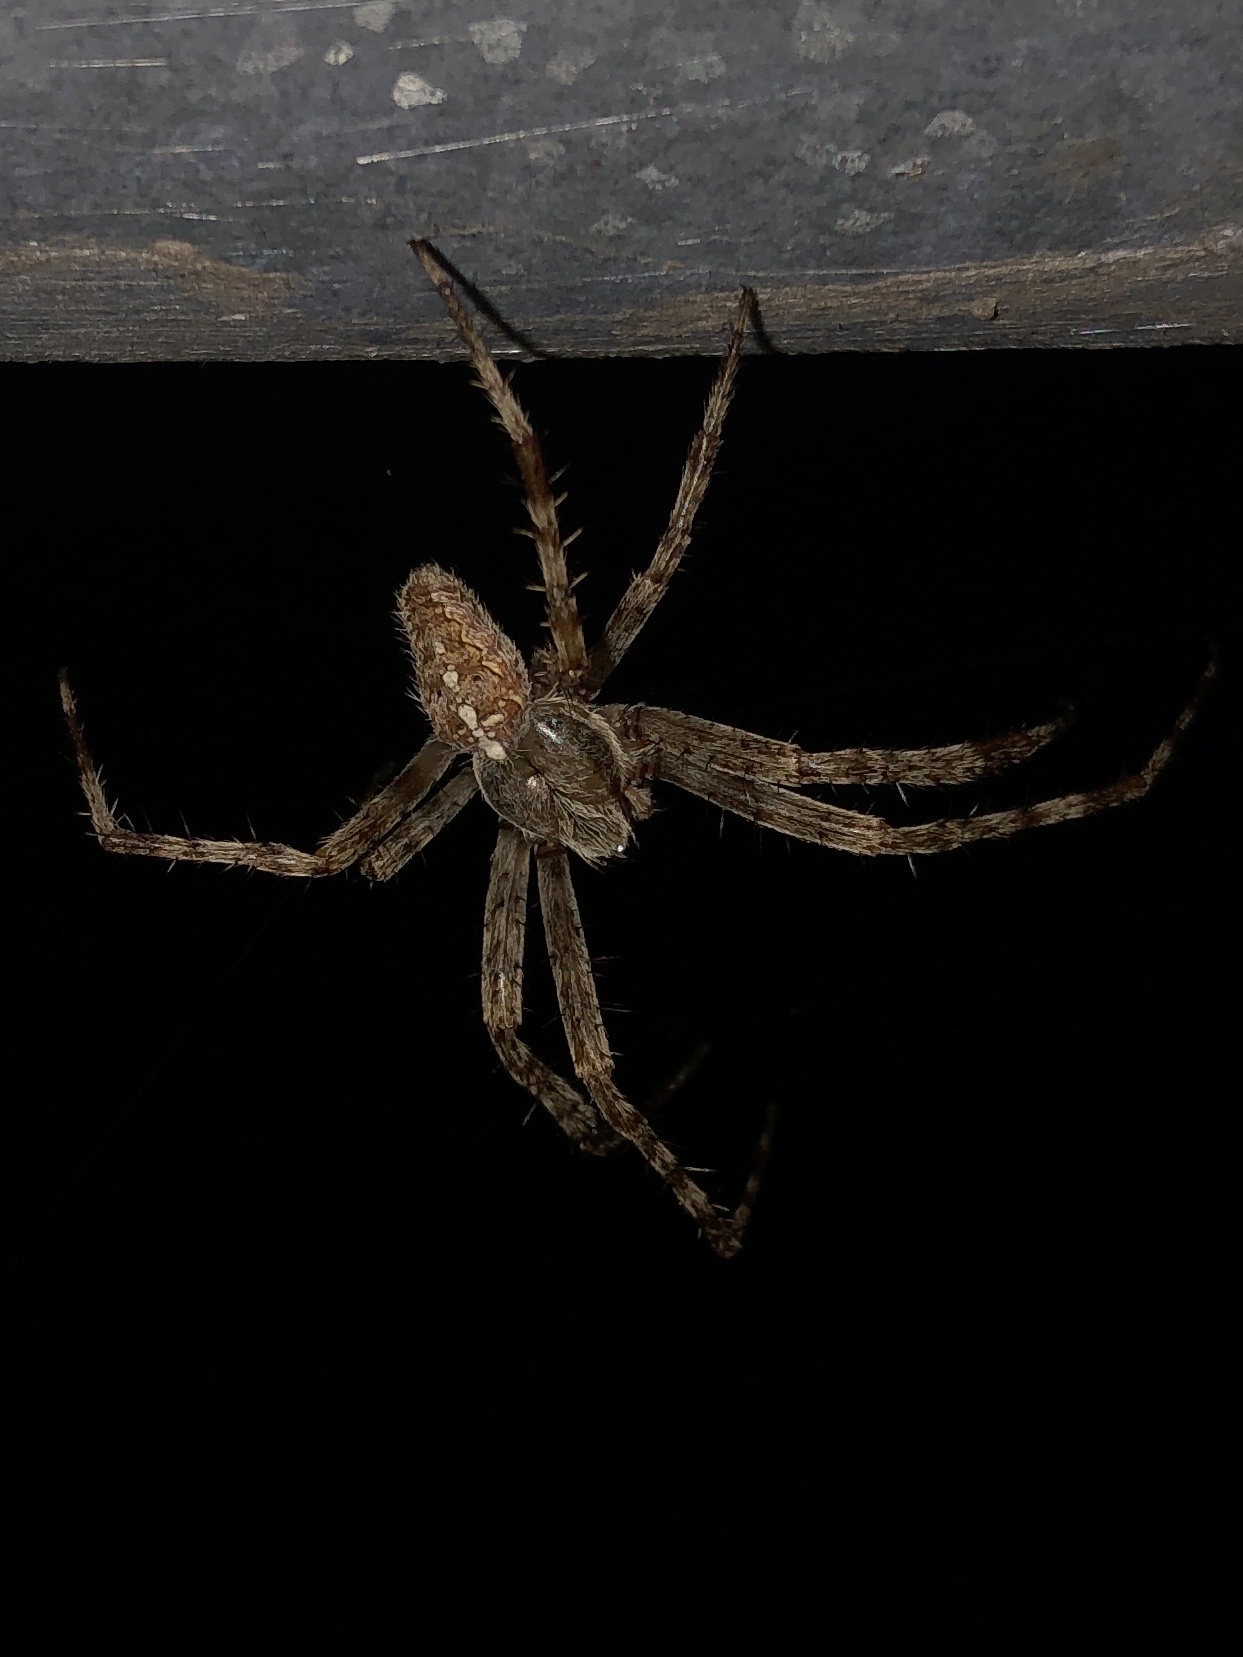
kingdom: Animalia
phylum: Arthropoda
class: Arachnida
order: Araneae
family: Araneidae
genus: Araneus
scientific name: Araneus diadematus
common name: Cross orbweaver
